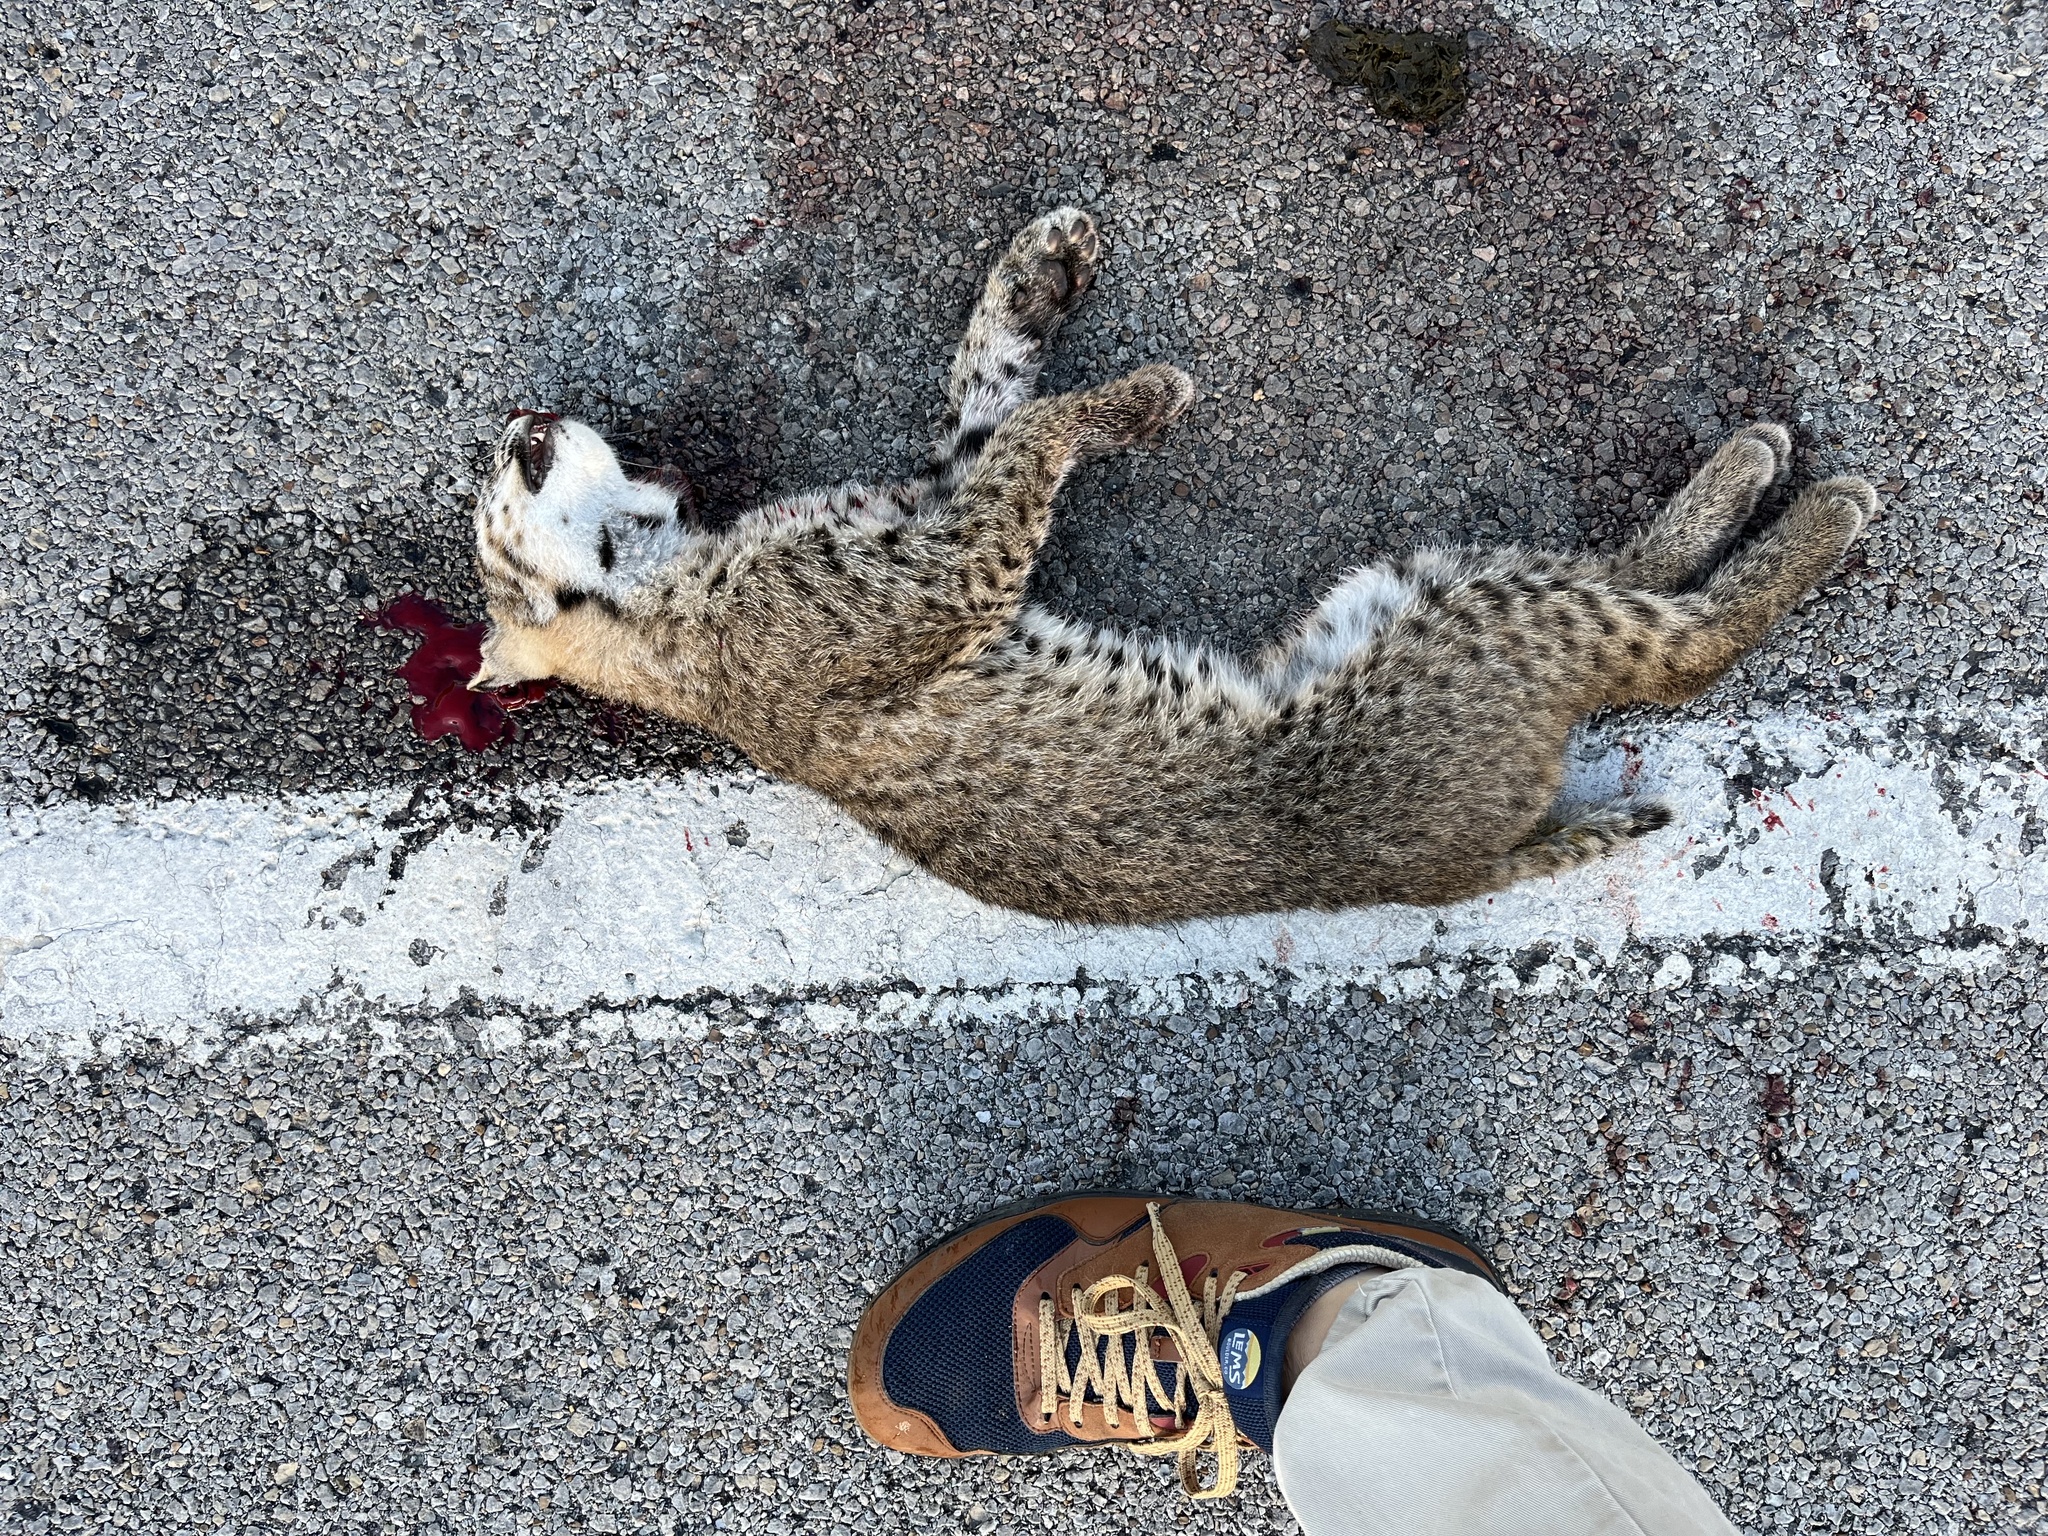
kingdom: Animalia
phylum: Chordata
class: Mammalia
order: Carnivora
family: Felidae
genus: Lynx
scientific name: Lynx rufus
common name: Bobcat
